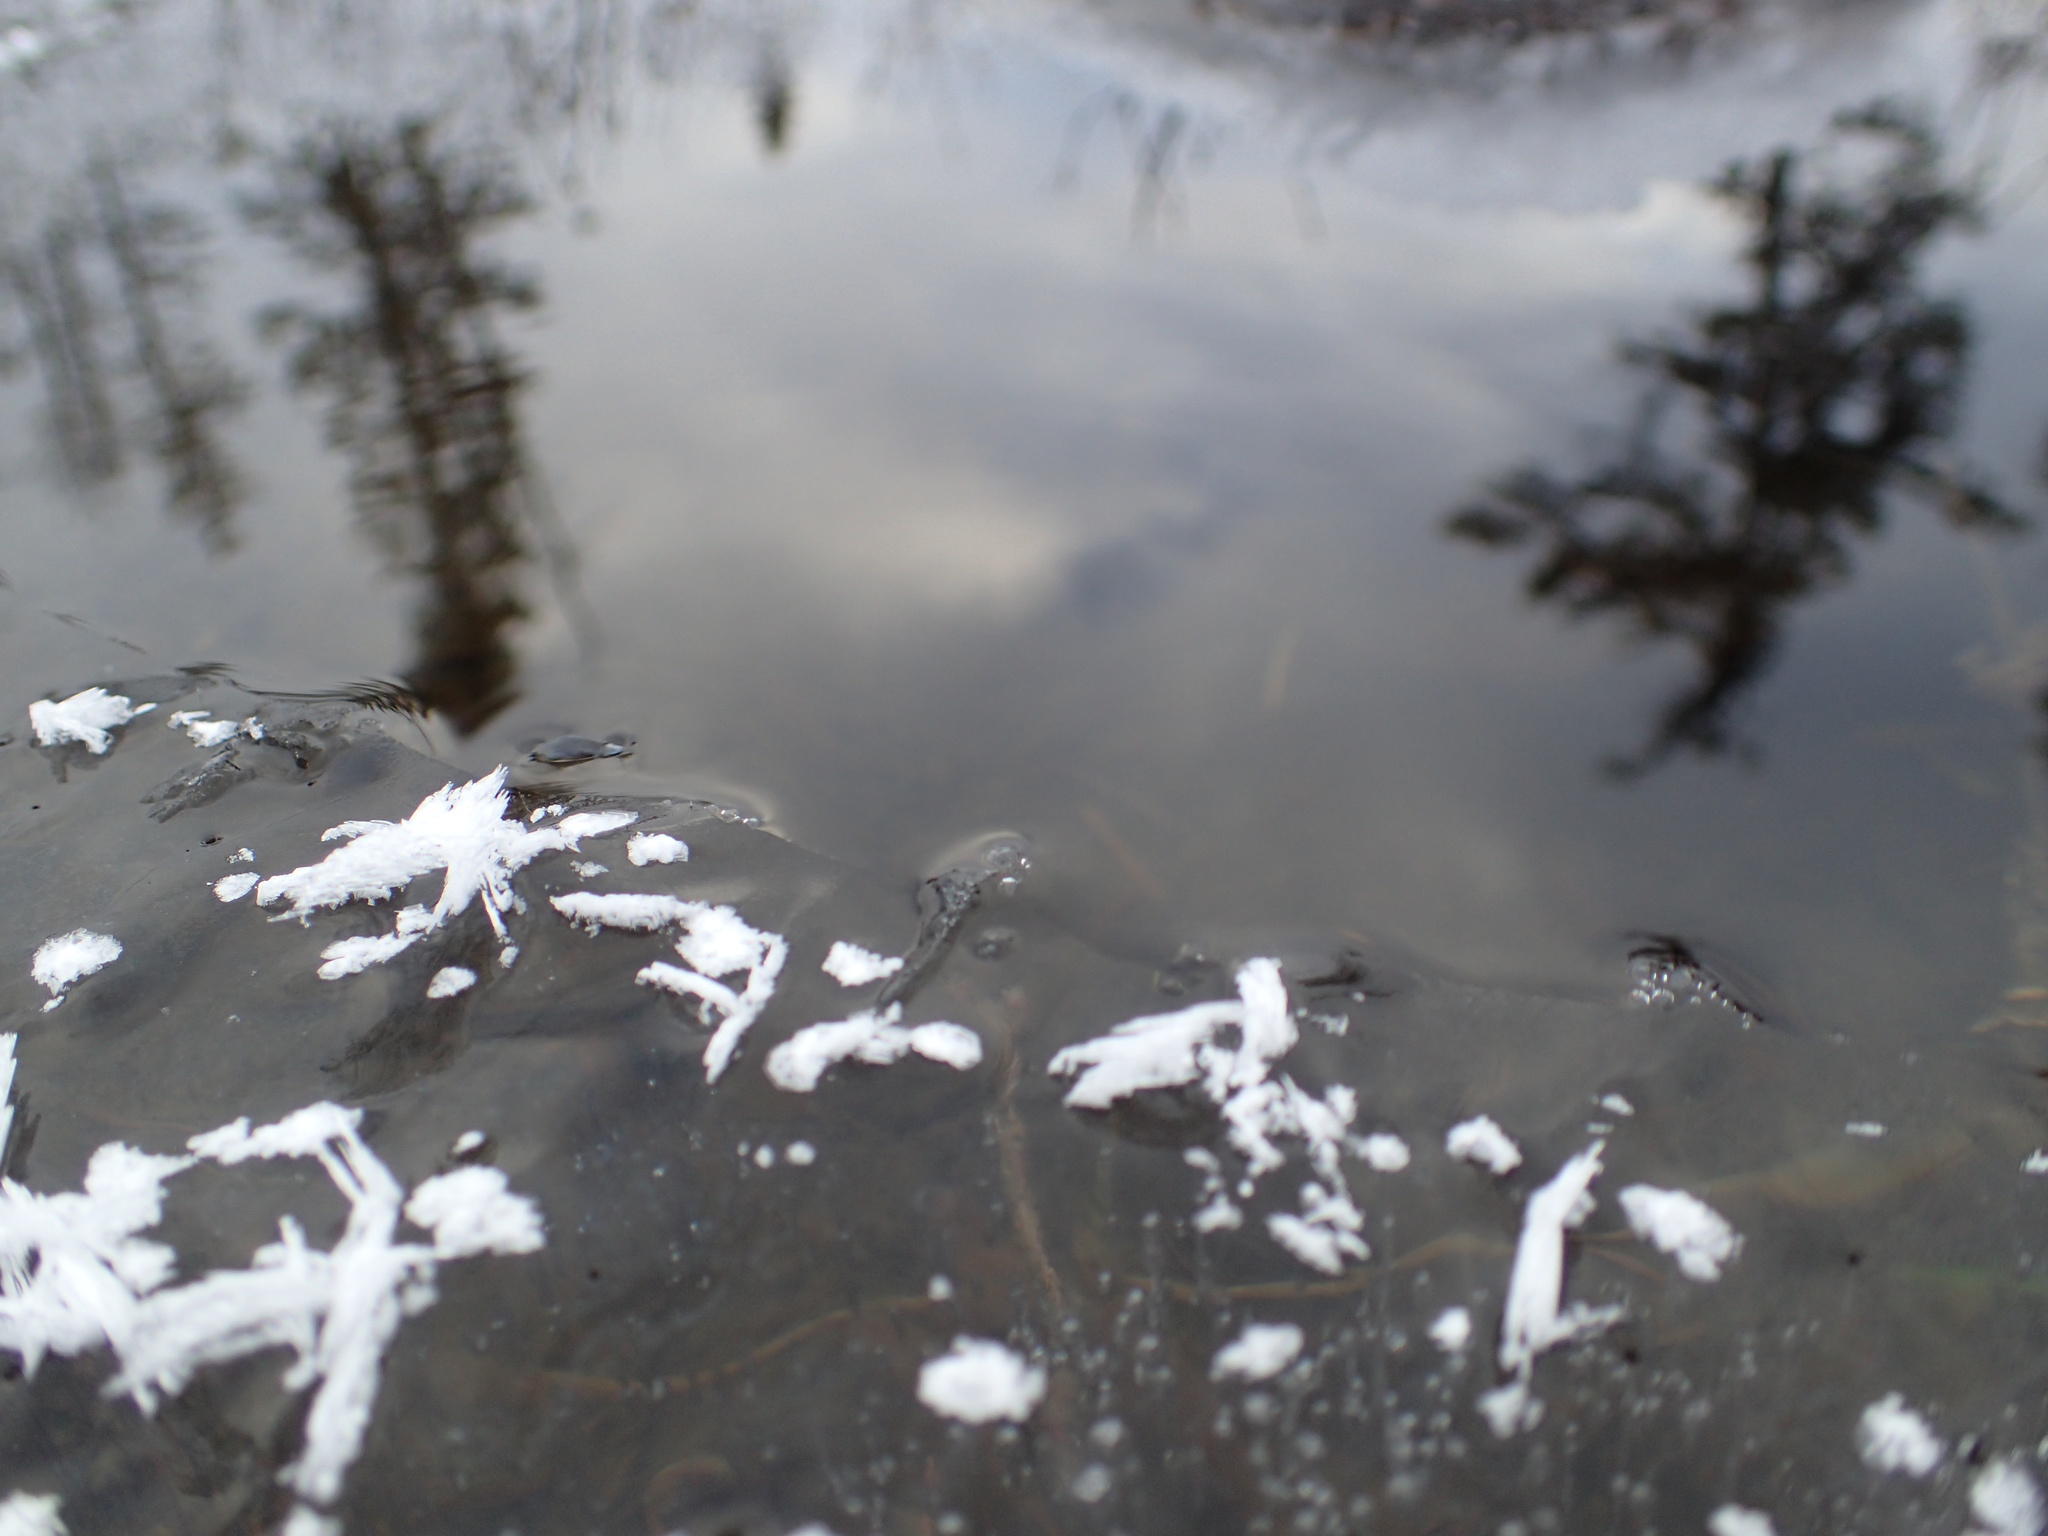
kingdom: Animalia
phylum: Arthropoda
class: Insecta
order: Coleoptera
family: Gyrinidae
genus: Gyrinus
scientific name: Gyrinus
